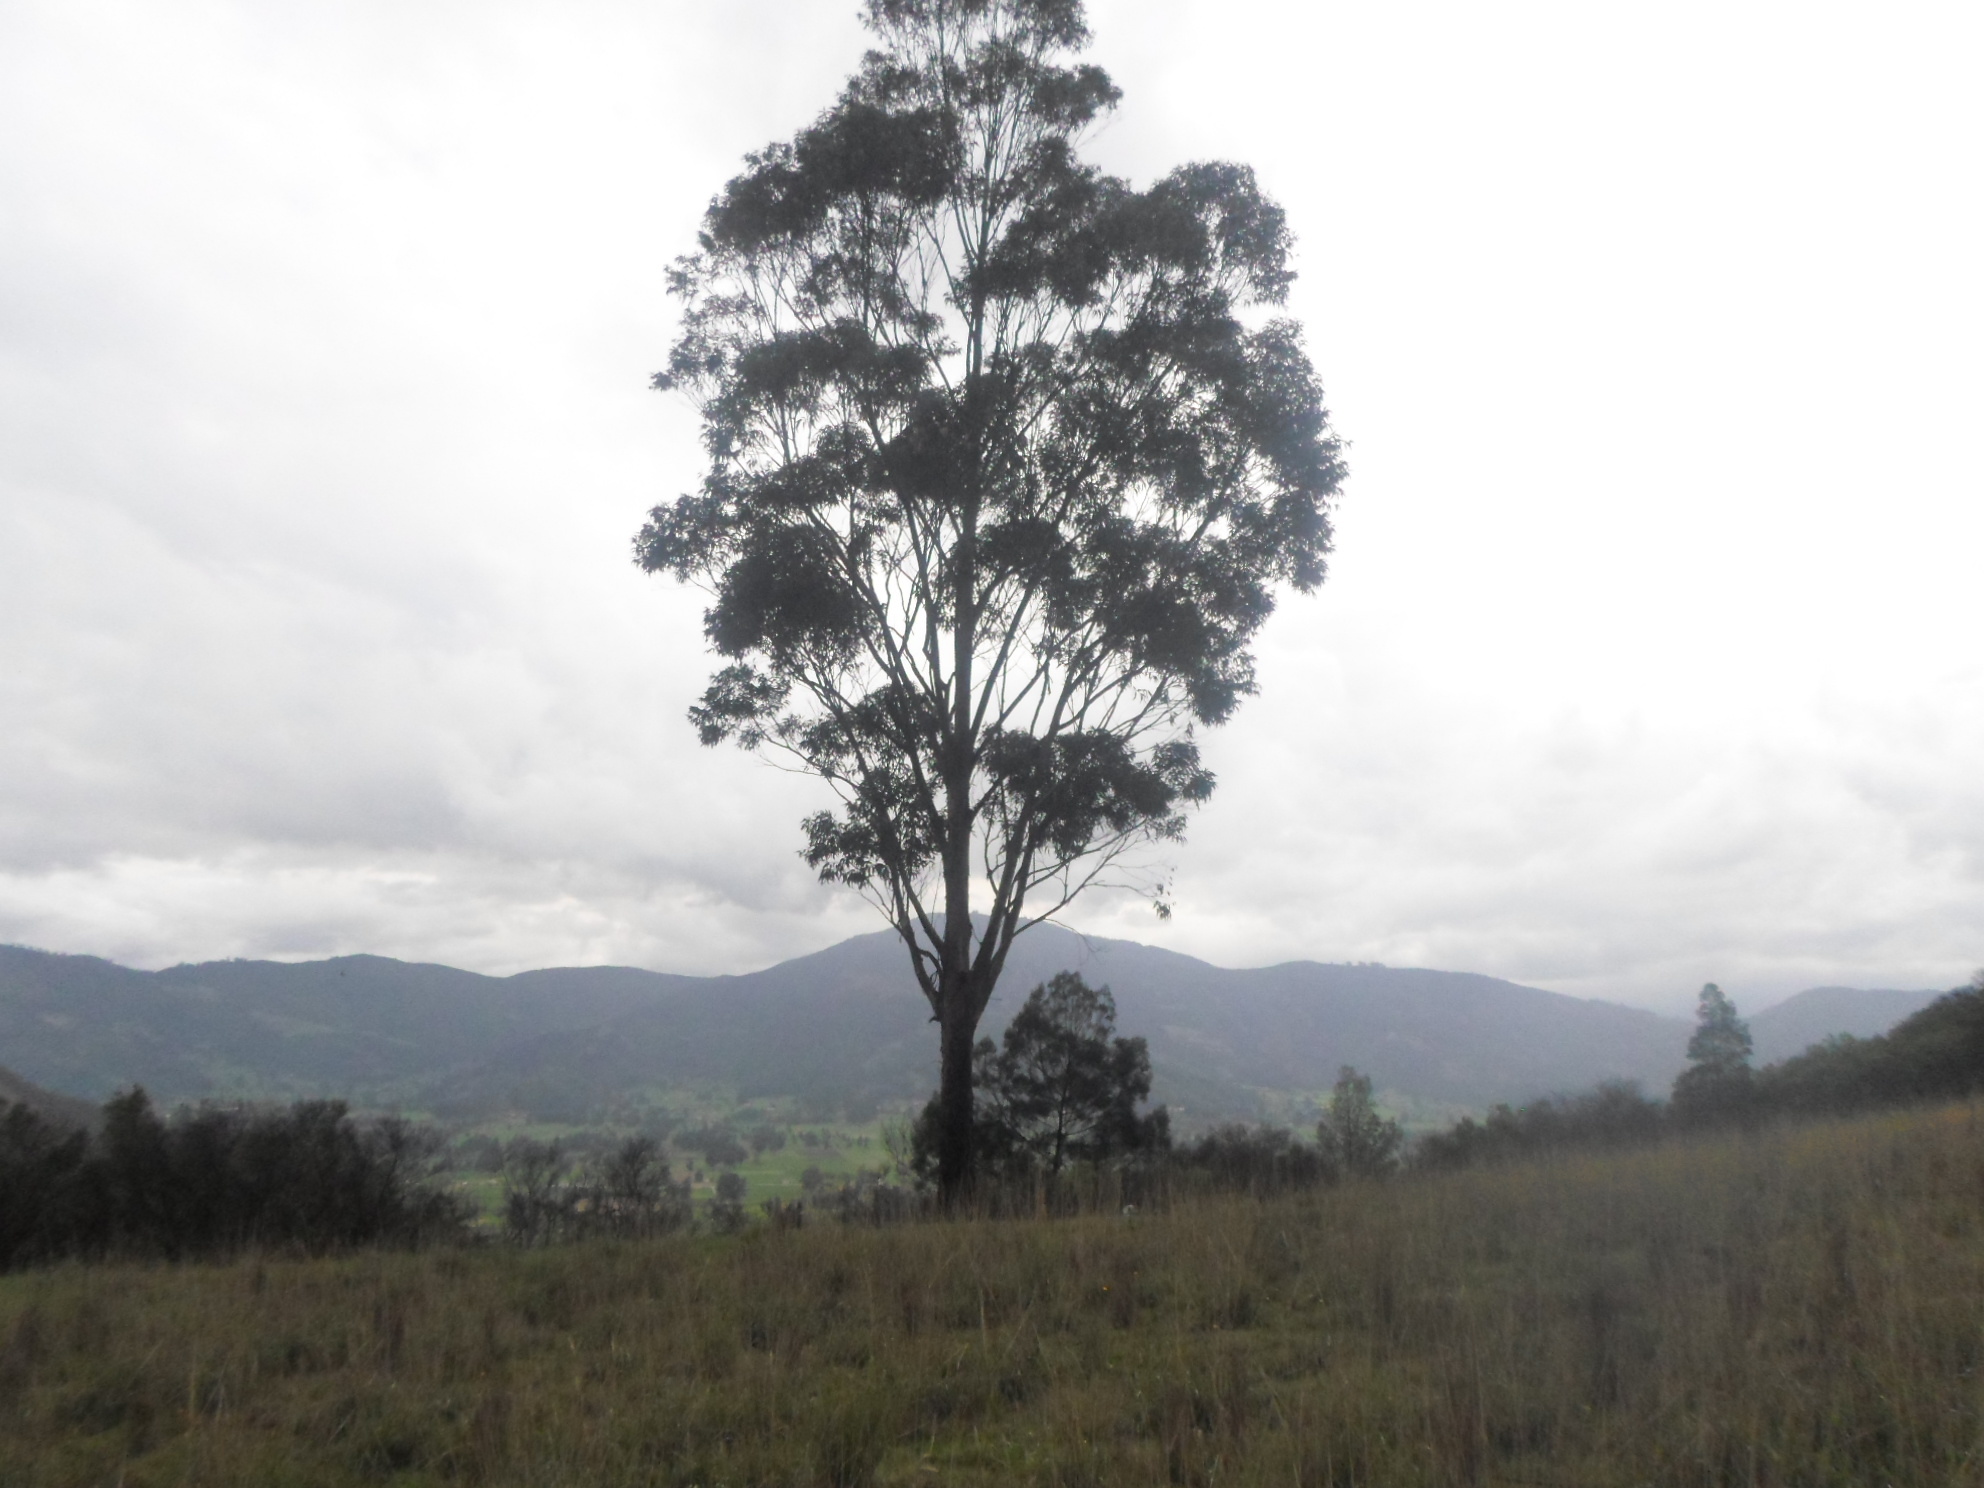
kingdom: Plantae
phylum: Tracheophyta
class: Magnoliopsida
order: Myrtales
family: Myrtaceae
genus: Eucalyptus
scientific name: Eucalyptus globulus
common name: Southern blue-gum
